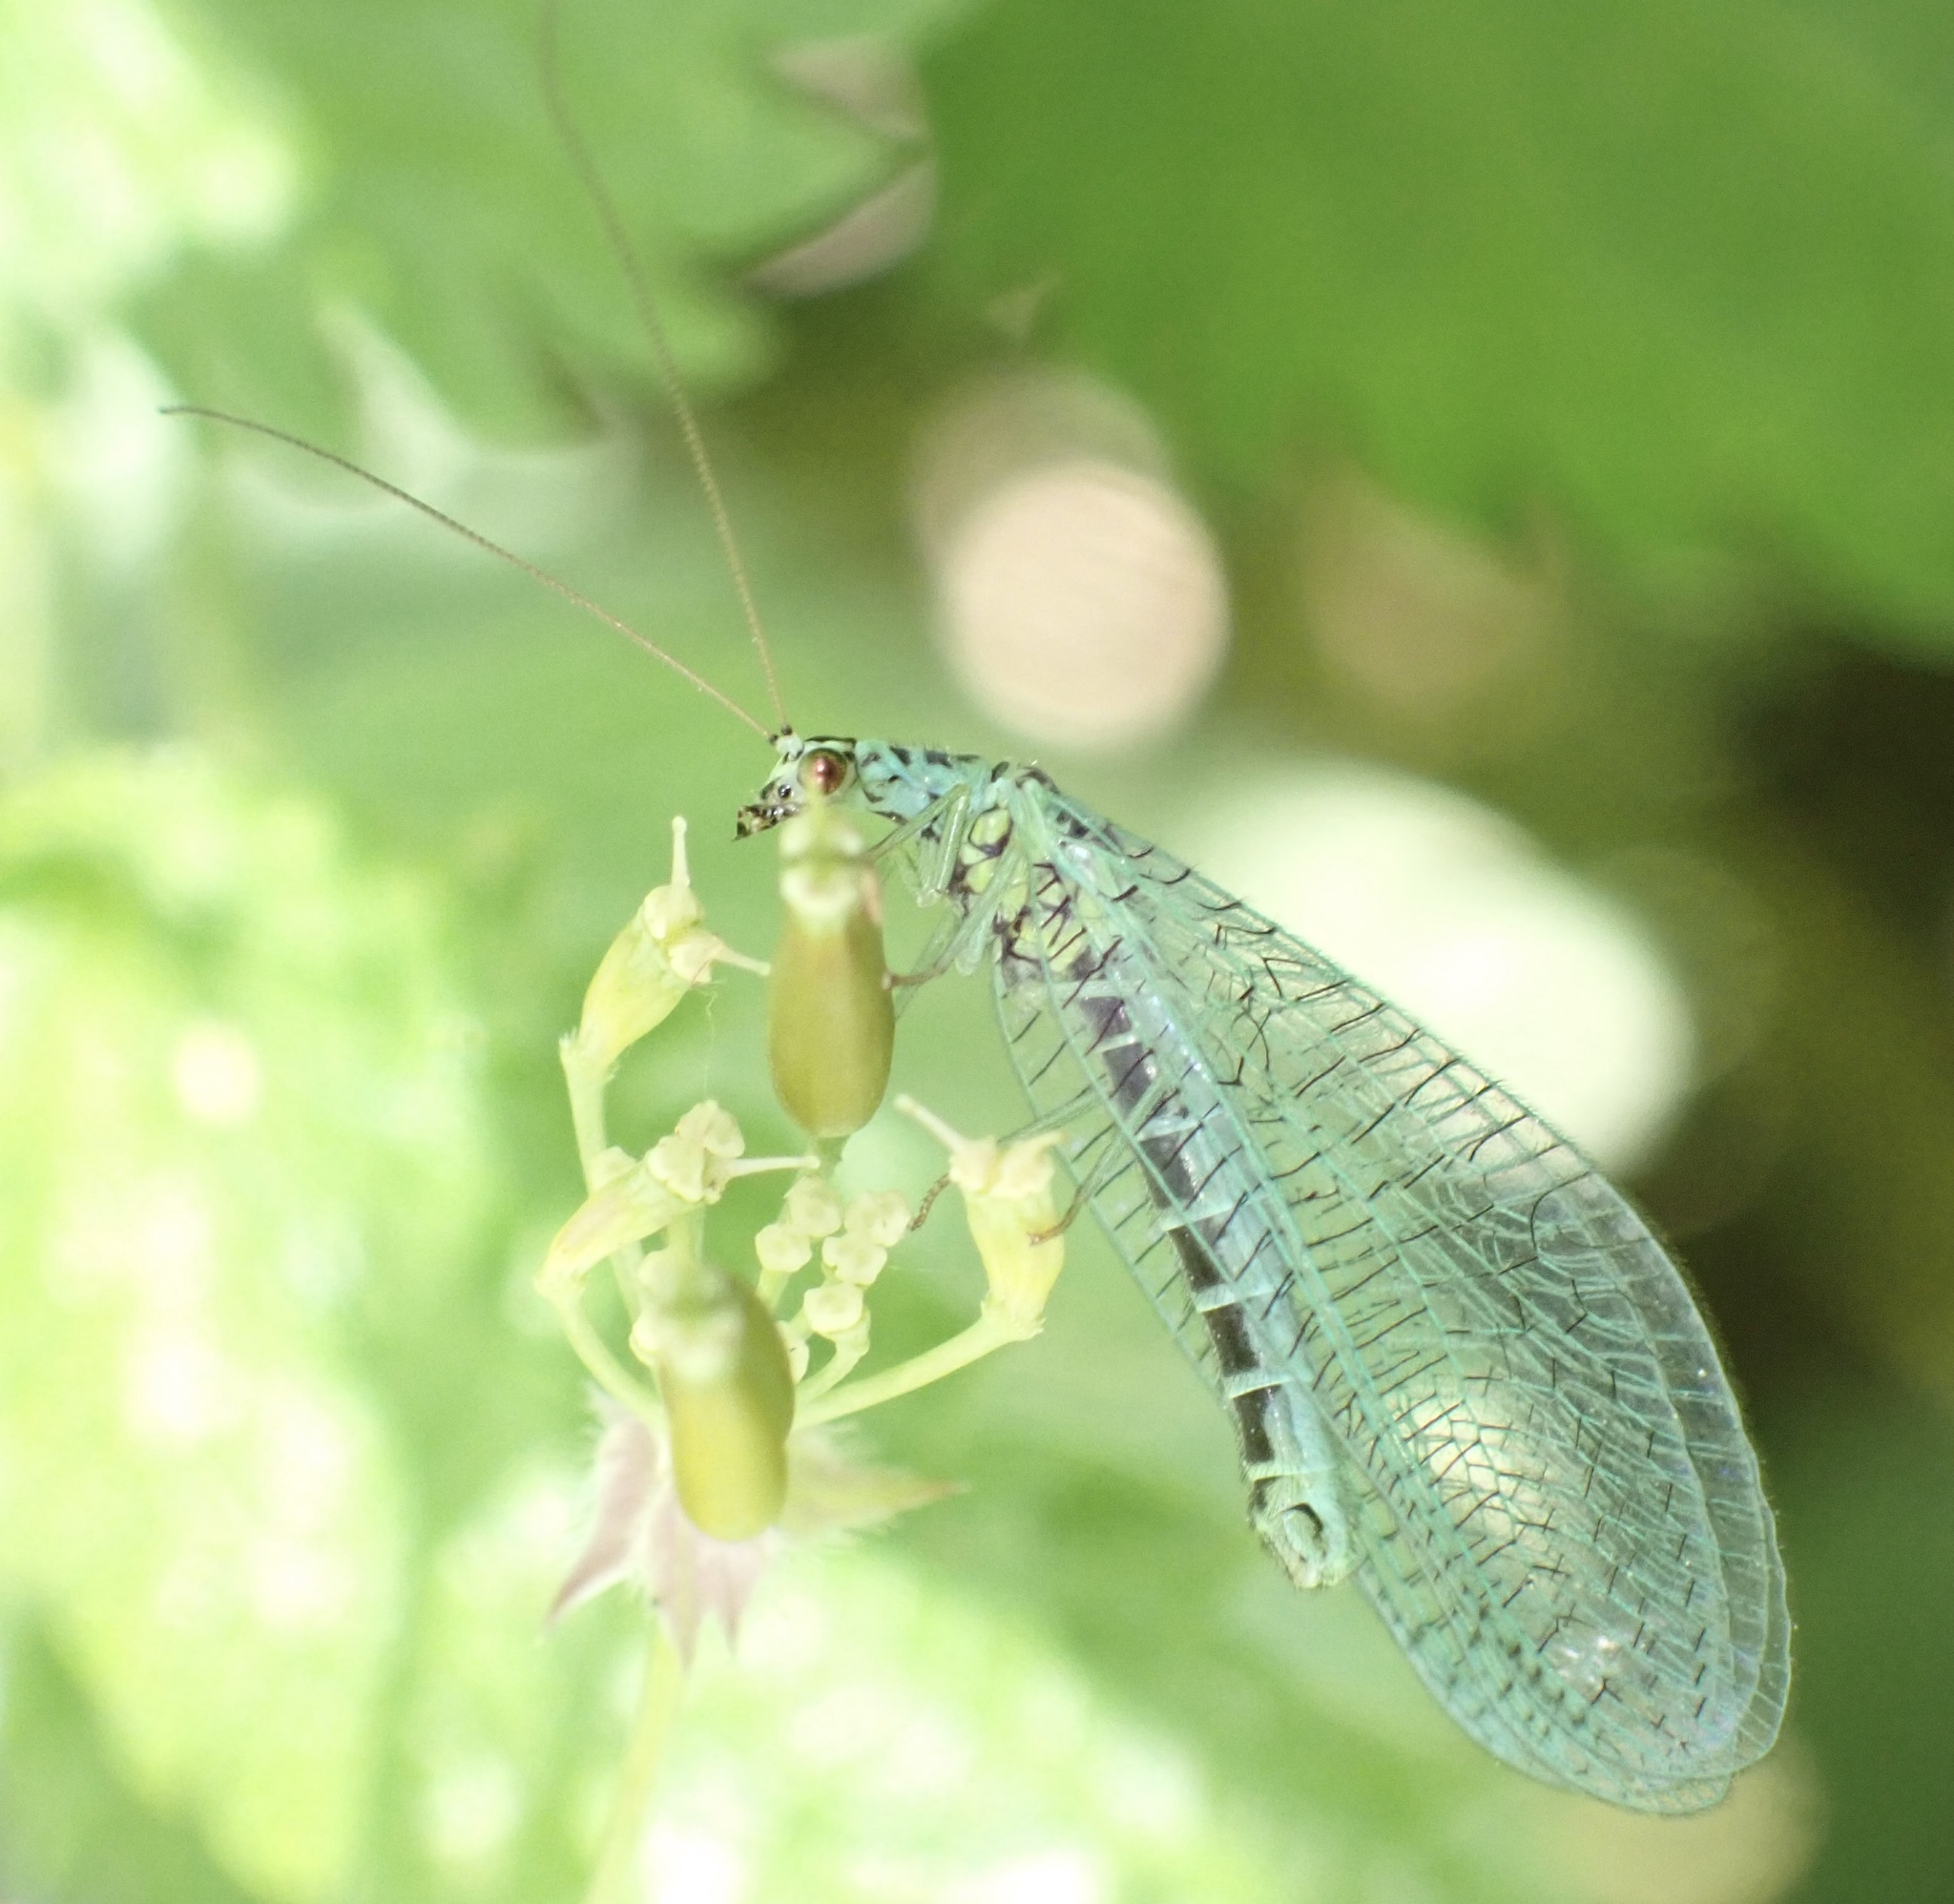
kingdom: Animalia
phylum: Arthropoda
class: Insecta
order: Neuroptera
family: Chrysopidae
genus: Chrysopa
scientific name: Chrysopa perla
